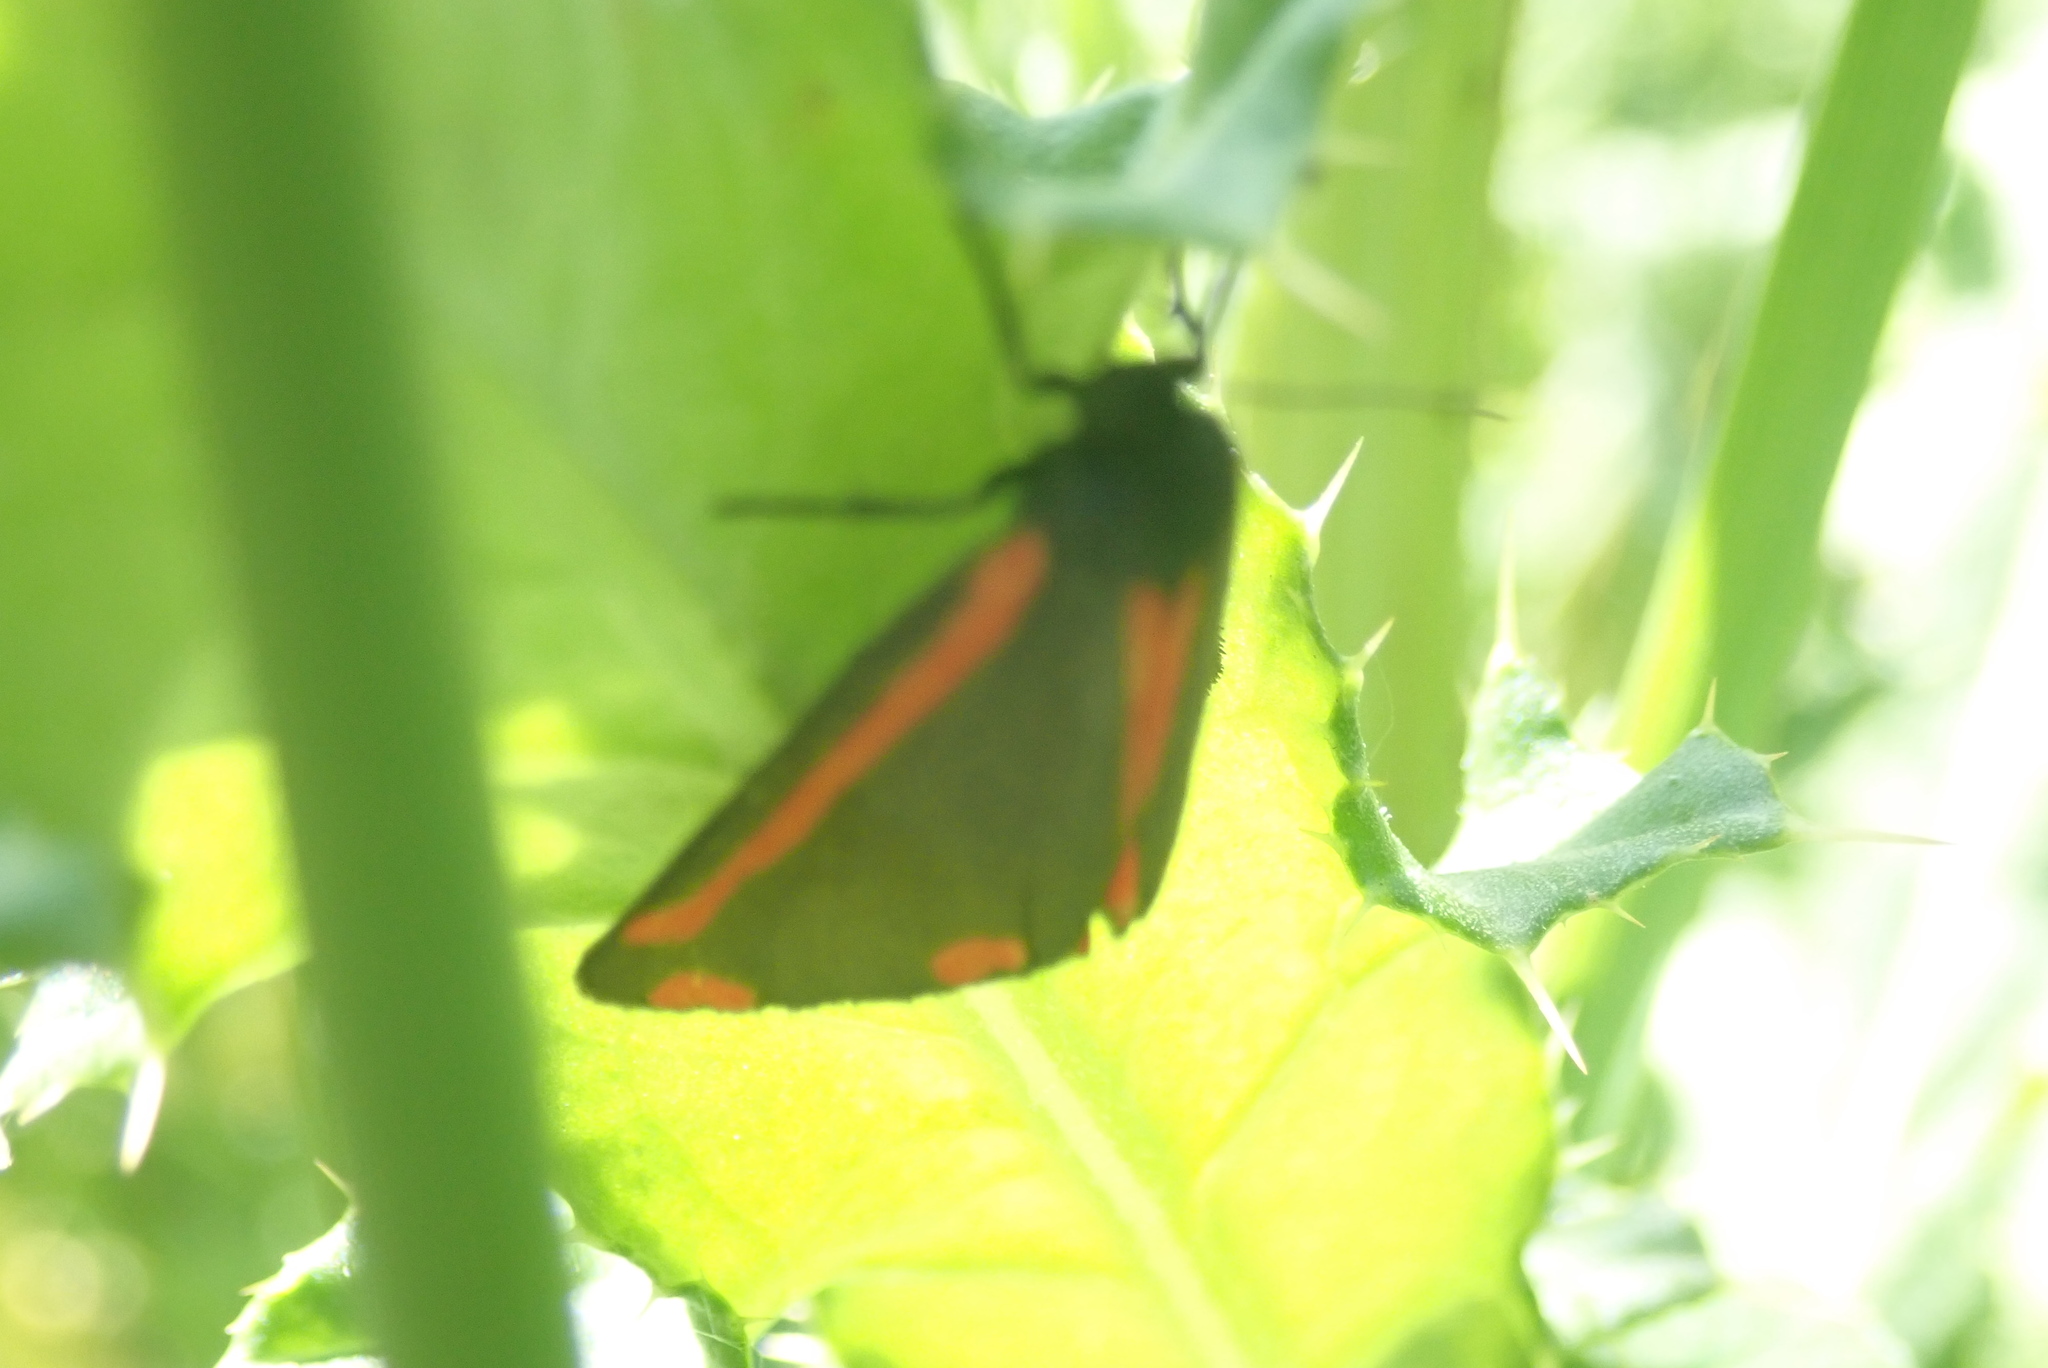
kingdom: Animalia
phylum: Arthropoda
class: Insecta
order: Lepidoptera
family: Erebidae
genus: Tyria
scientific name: Tyria jacobaeae
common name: Cinnabar
